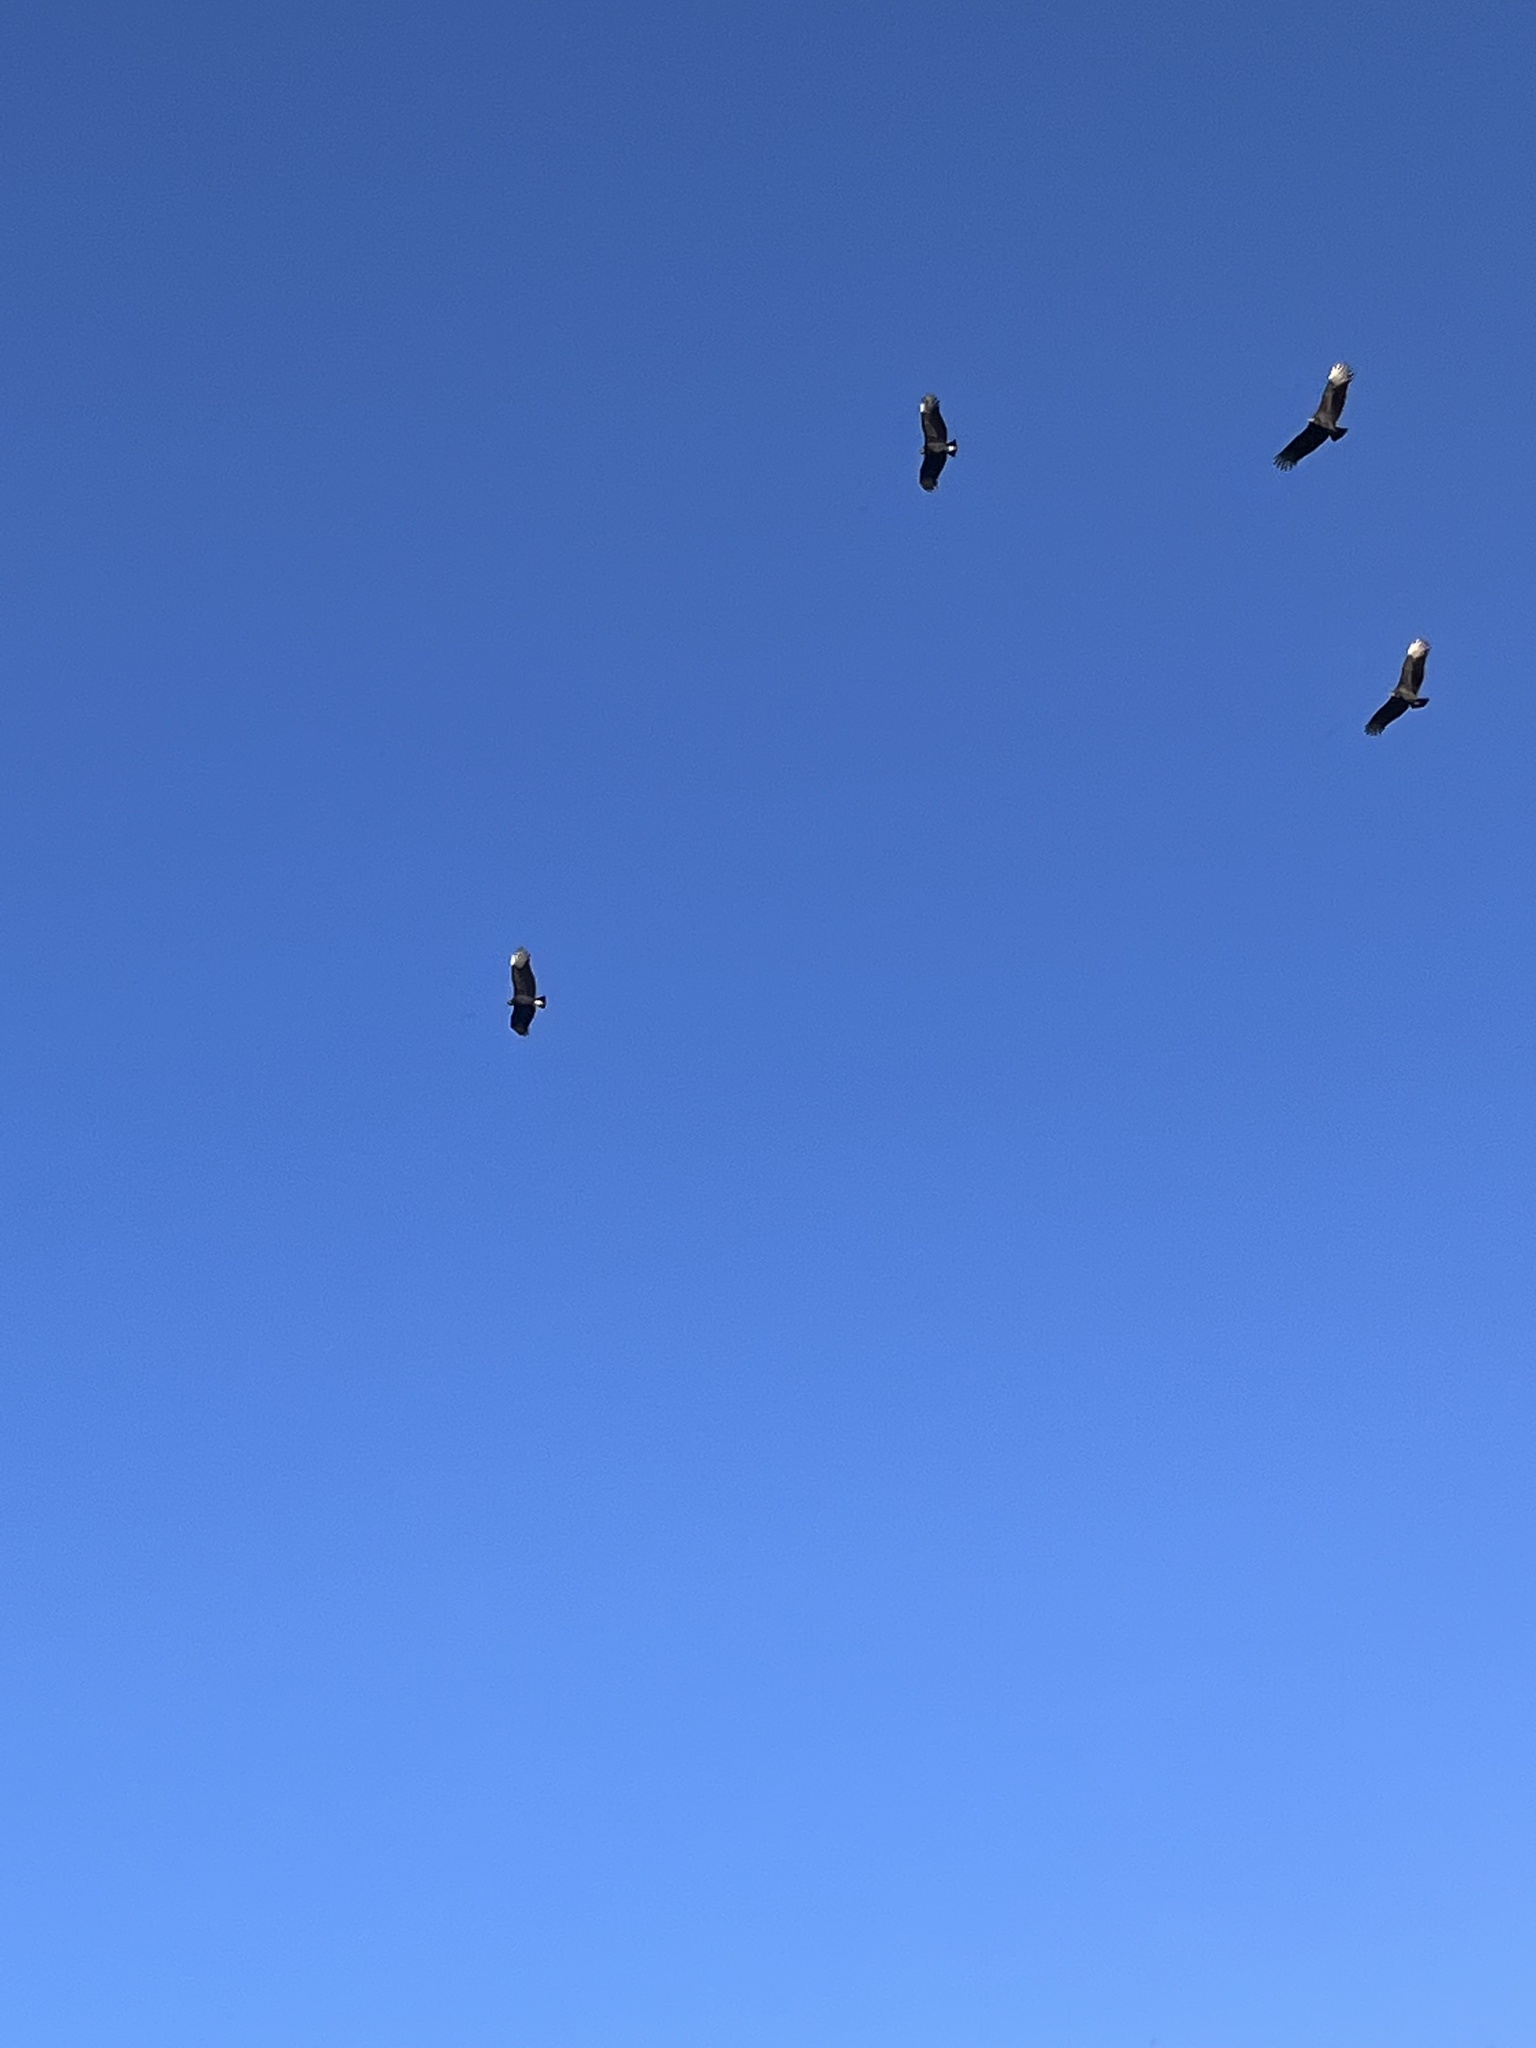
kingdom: Animalia
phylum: Chordata
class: Aves
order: Accipitriformes
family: Cathartidae
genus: Coragyps
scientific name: Coragyps atratus
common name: Black vulture
